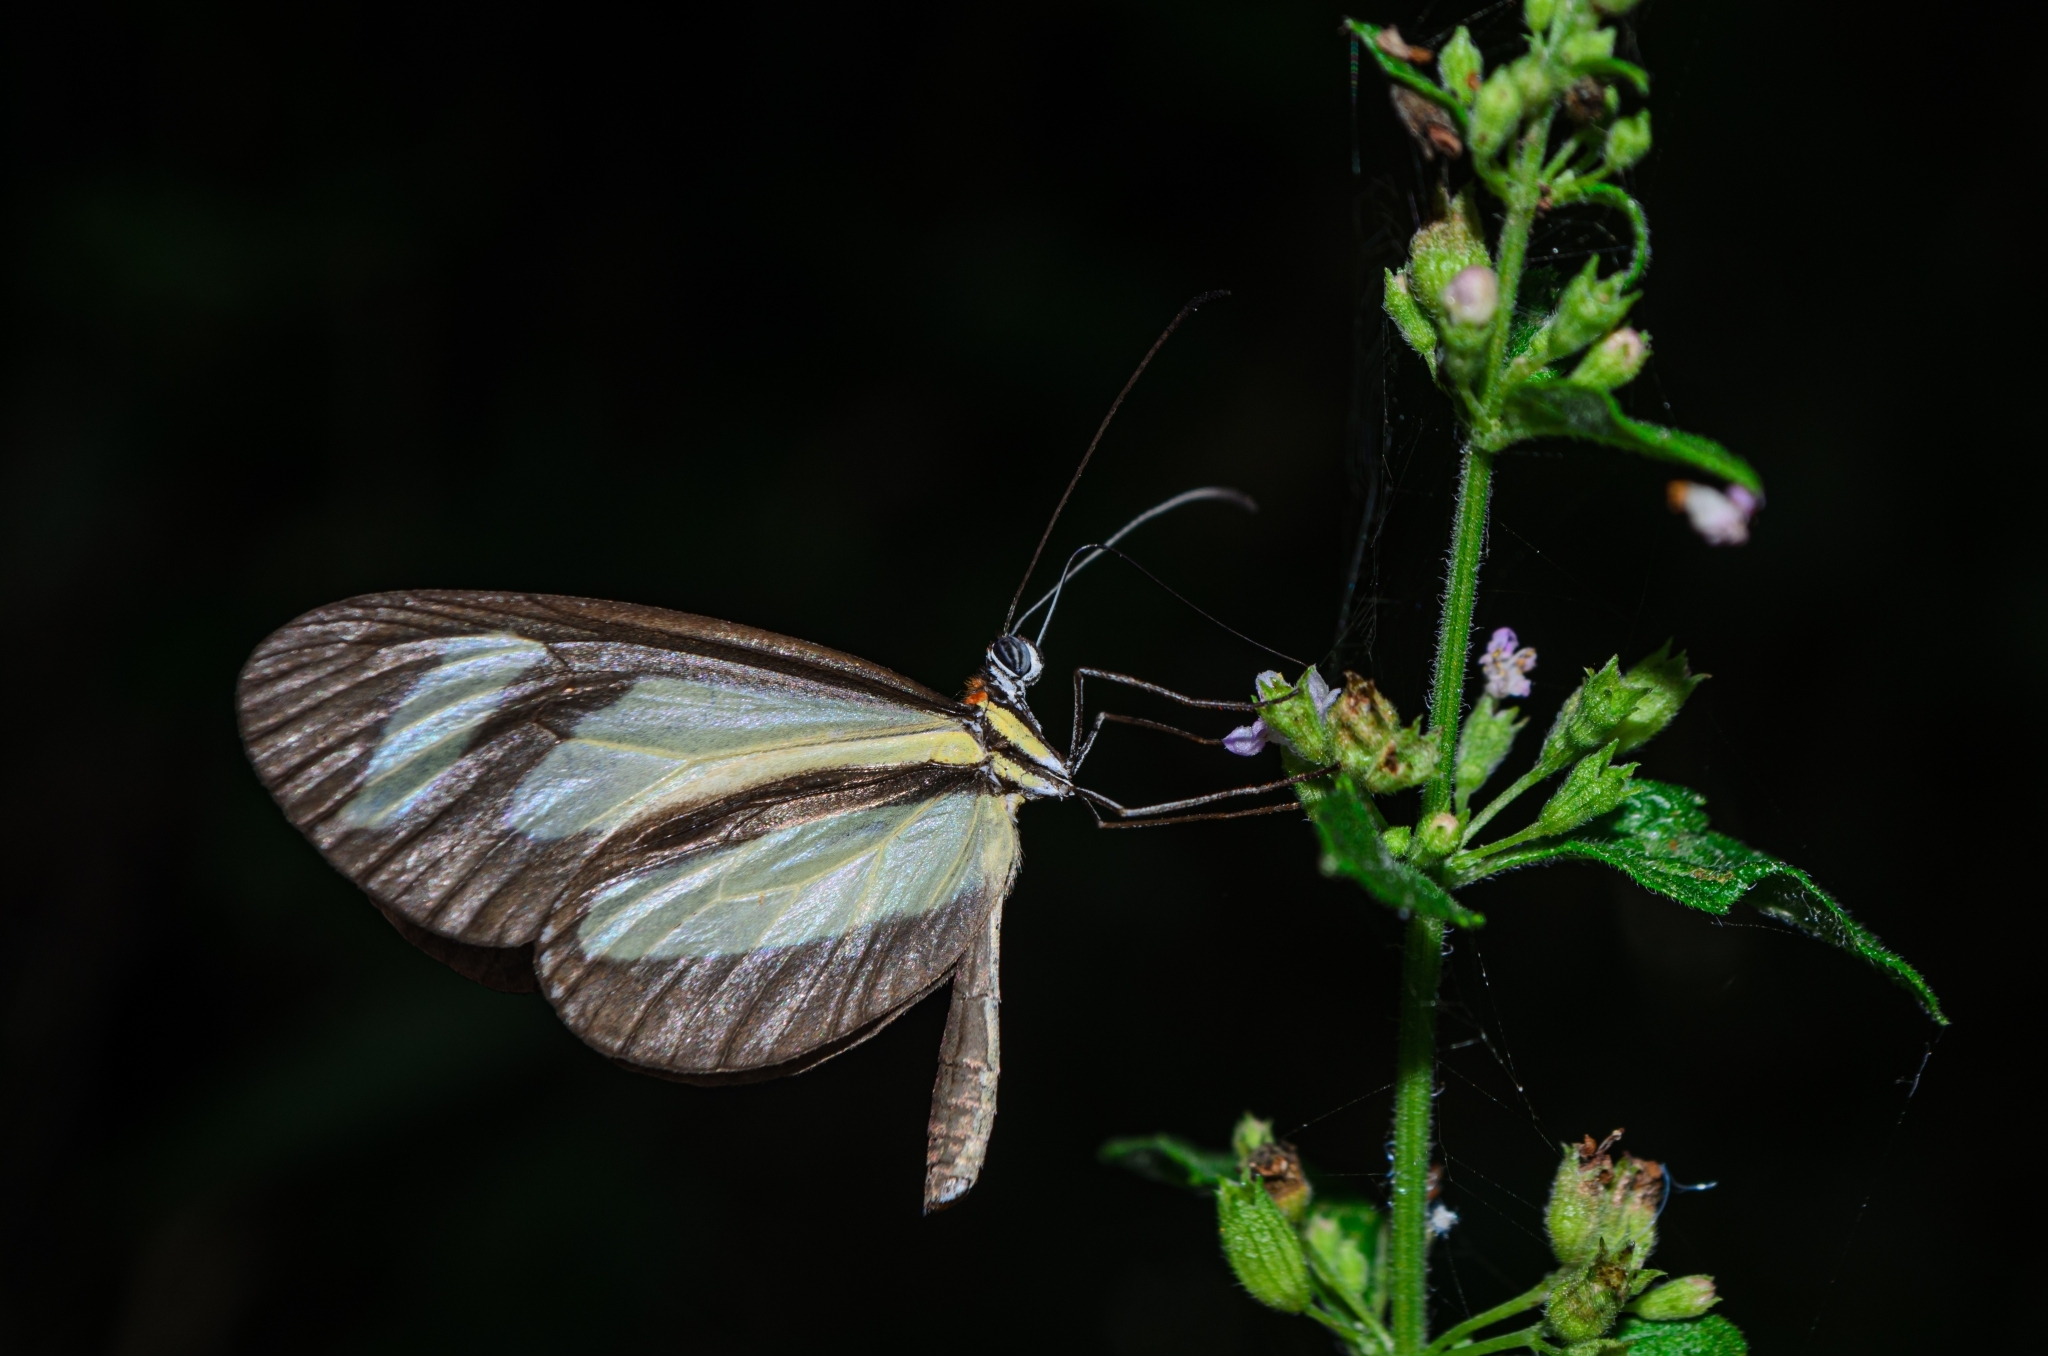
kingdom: Animalia
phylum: Arthropoda
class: Insecta
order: Lepidoptera
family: Nymphalidae
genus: Aeria
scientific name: Aeria olena
